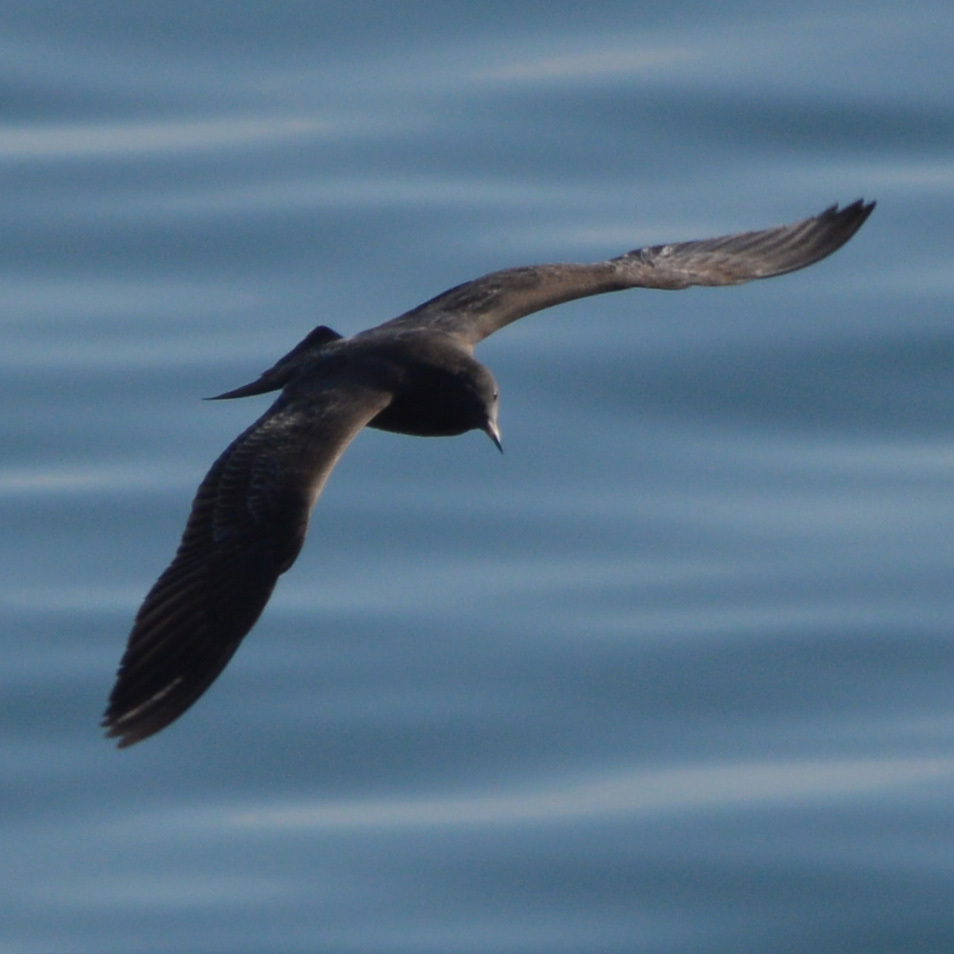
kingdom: Animalia
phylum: Chordata
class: Aves
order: Charadriiformes
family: Laridae
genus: Larus
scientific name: Larus heermanni
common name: Heermann's gull
